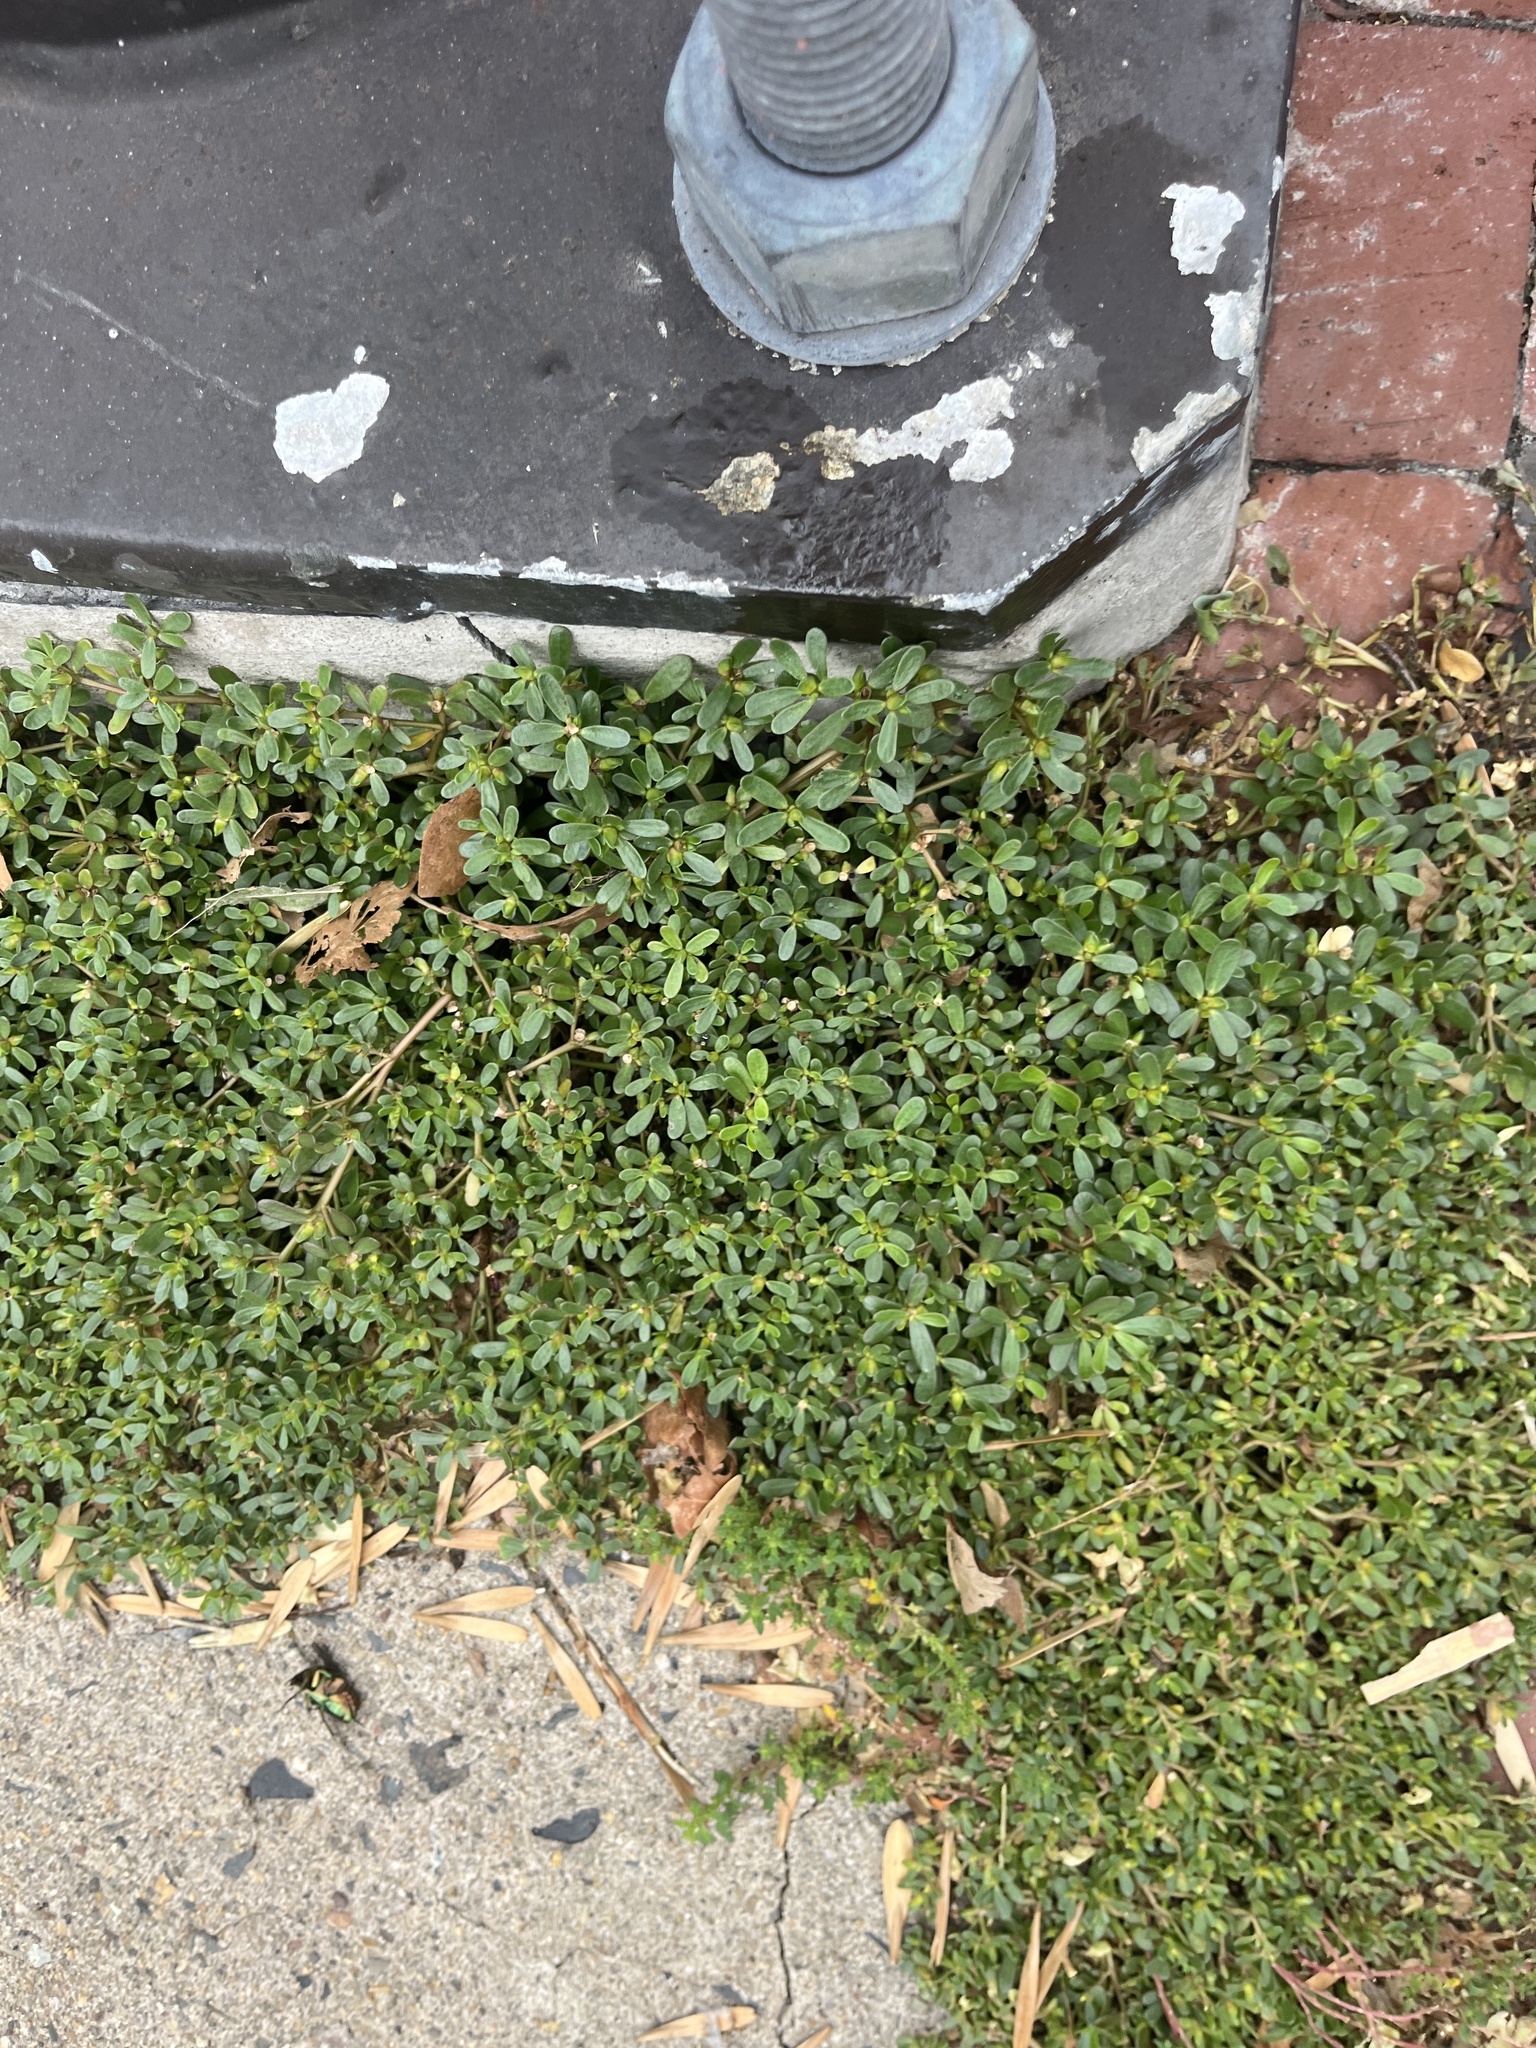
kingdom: Plantae
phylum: Tracheophyta
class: Magnoliopsida
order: Caryophyllales
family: Portulacaceae
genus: Portulaca
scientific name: Portulaca oleracea
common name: Common purslane
